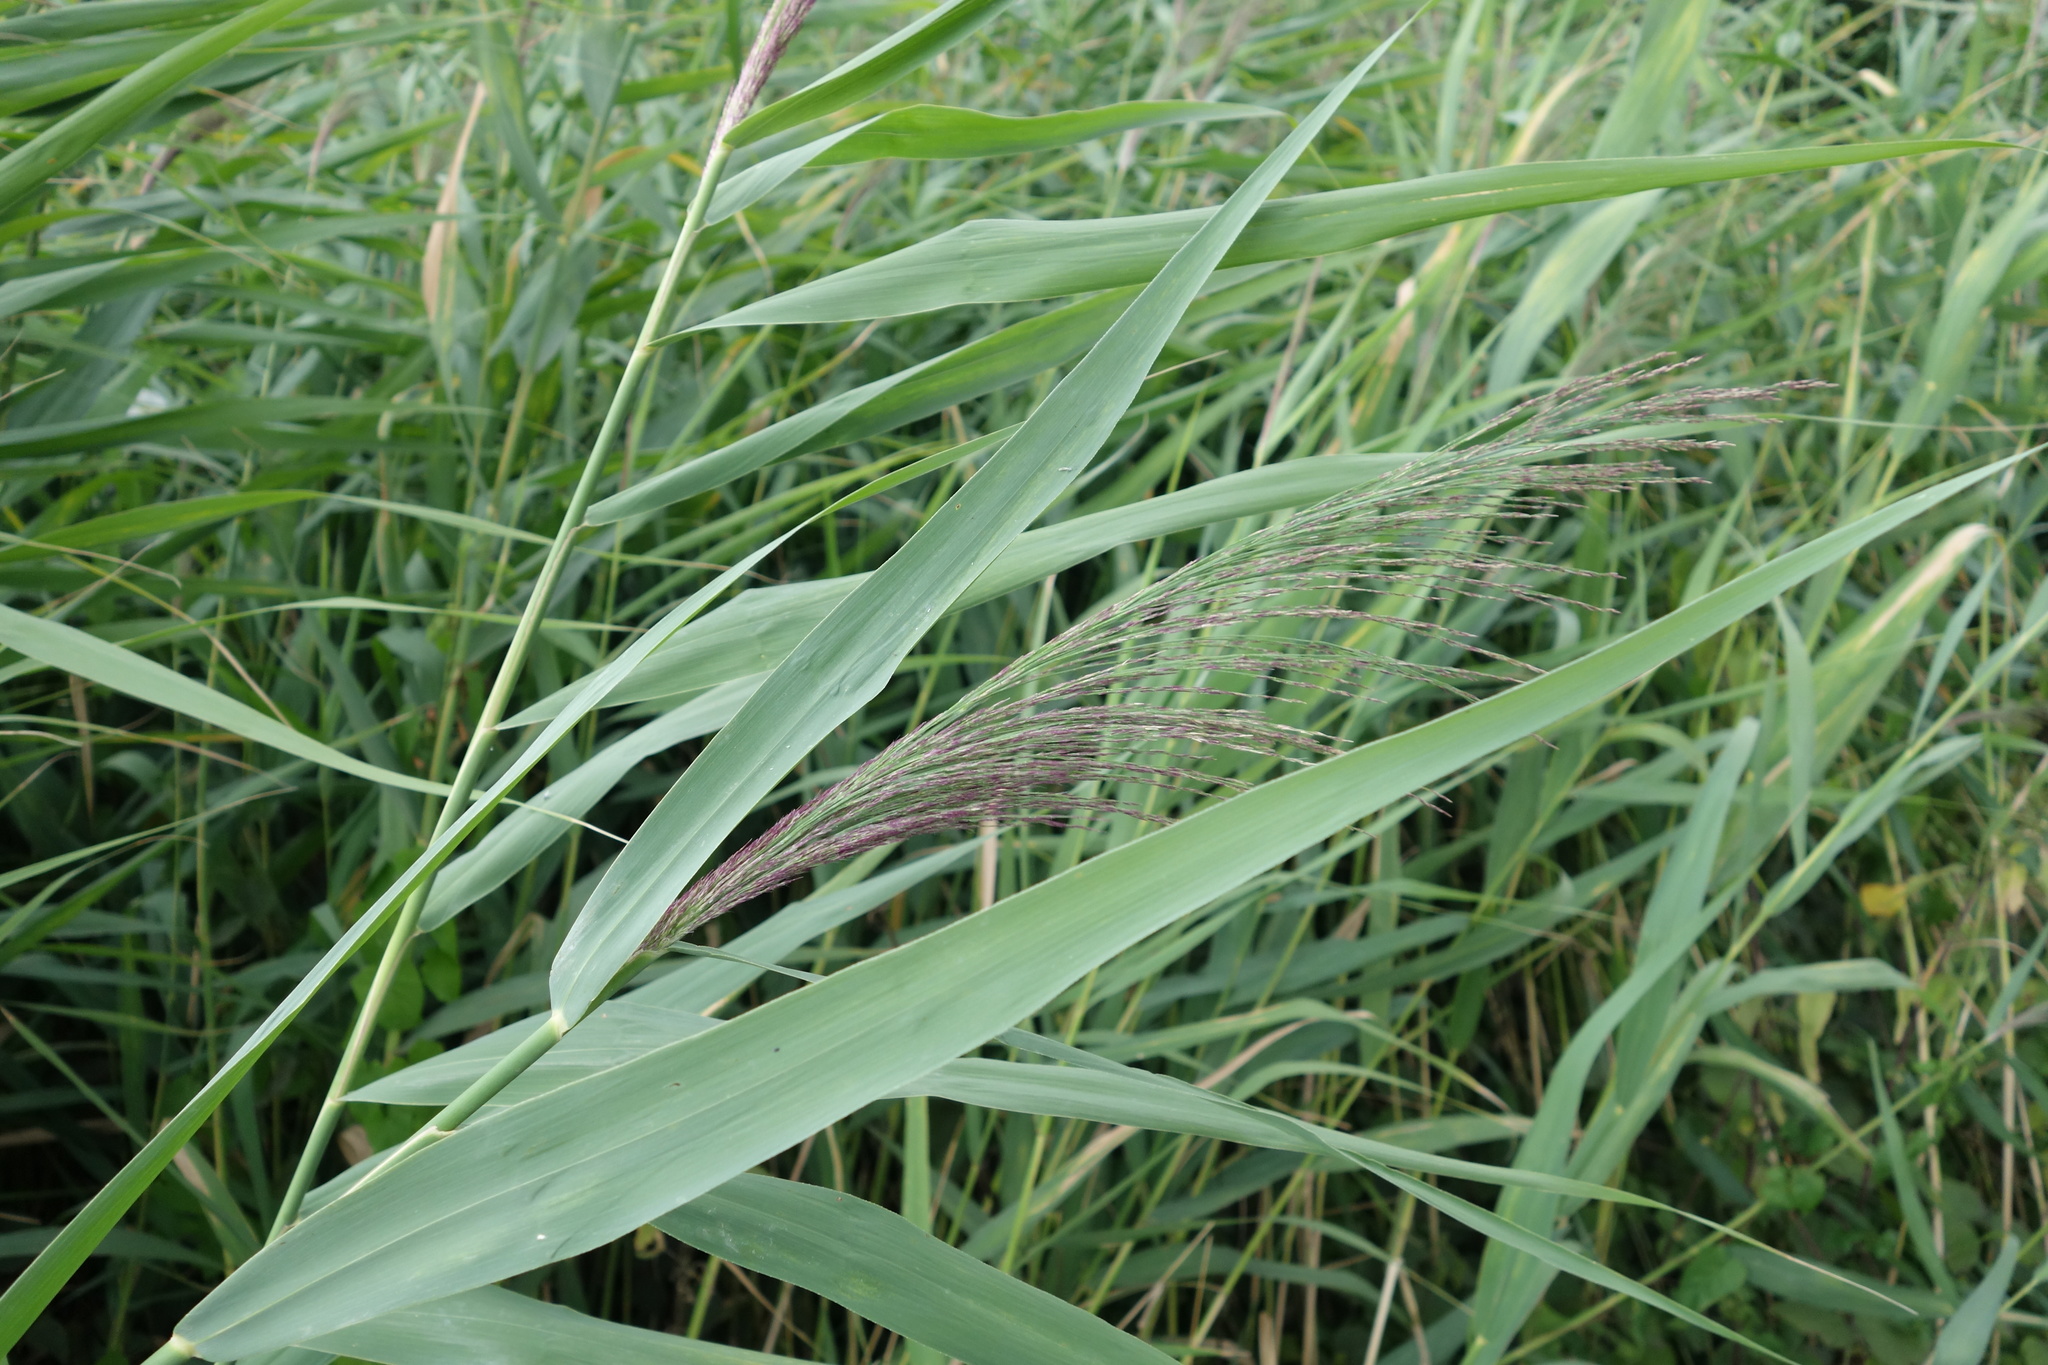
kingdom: Plantae
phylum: Tracheophyta
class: Liliopsida
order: Poales
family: Poaceae
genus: Phragmites
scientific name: Phragmites australis
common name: Common reed
